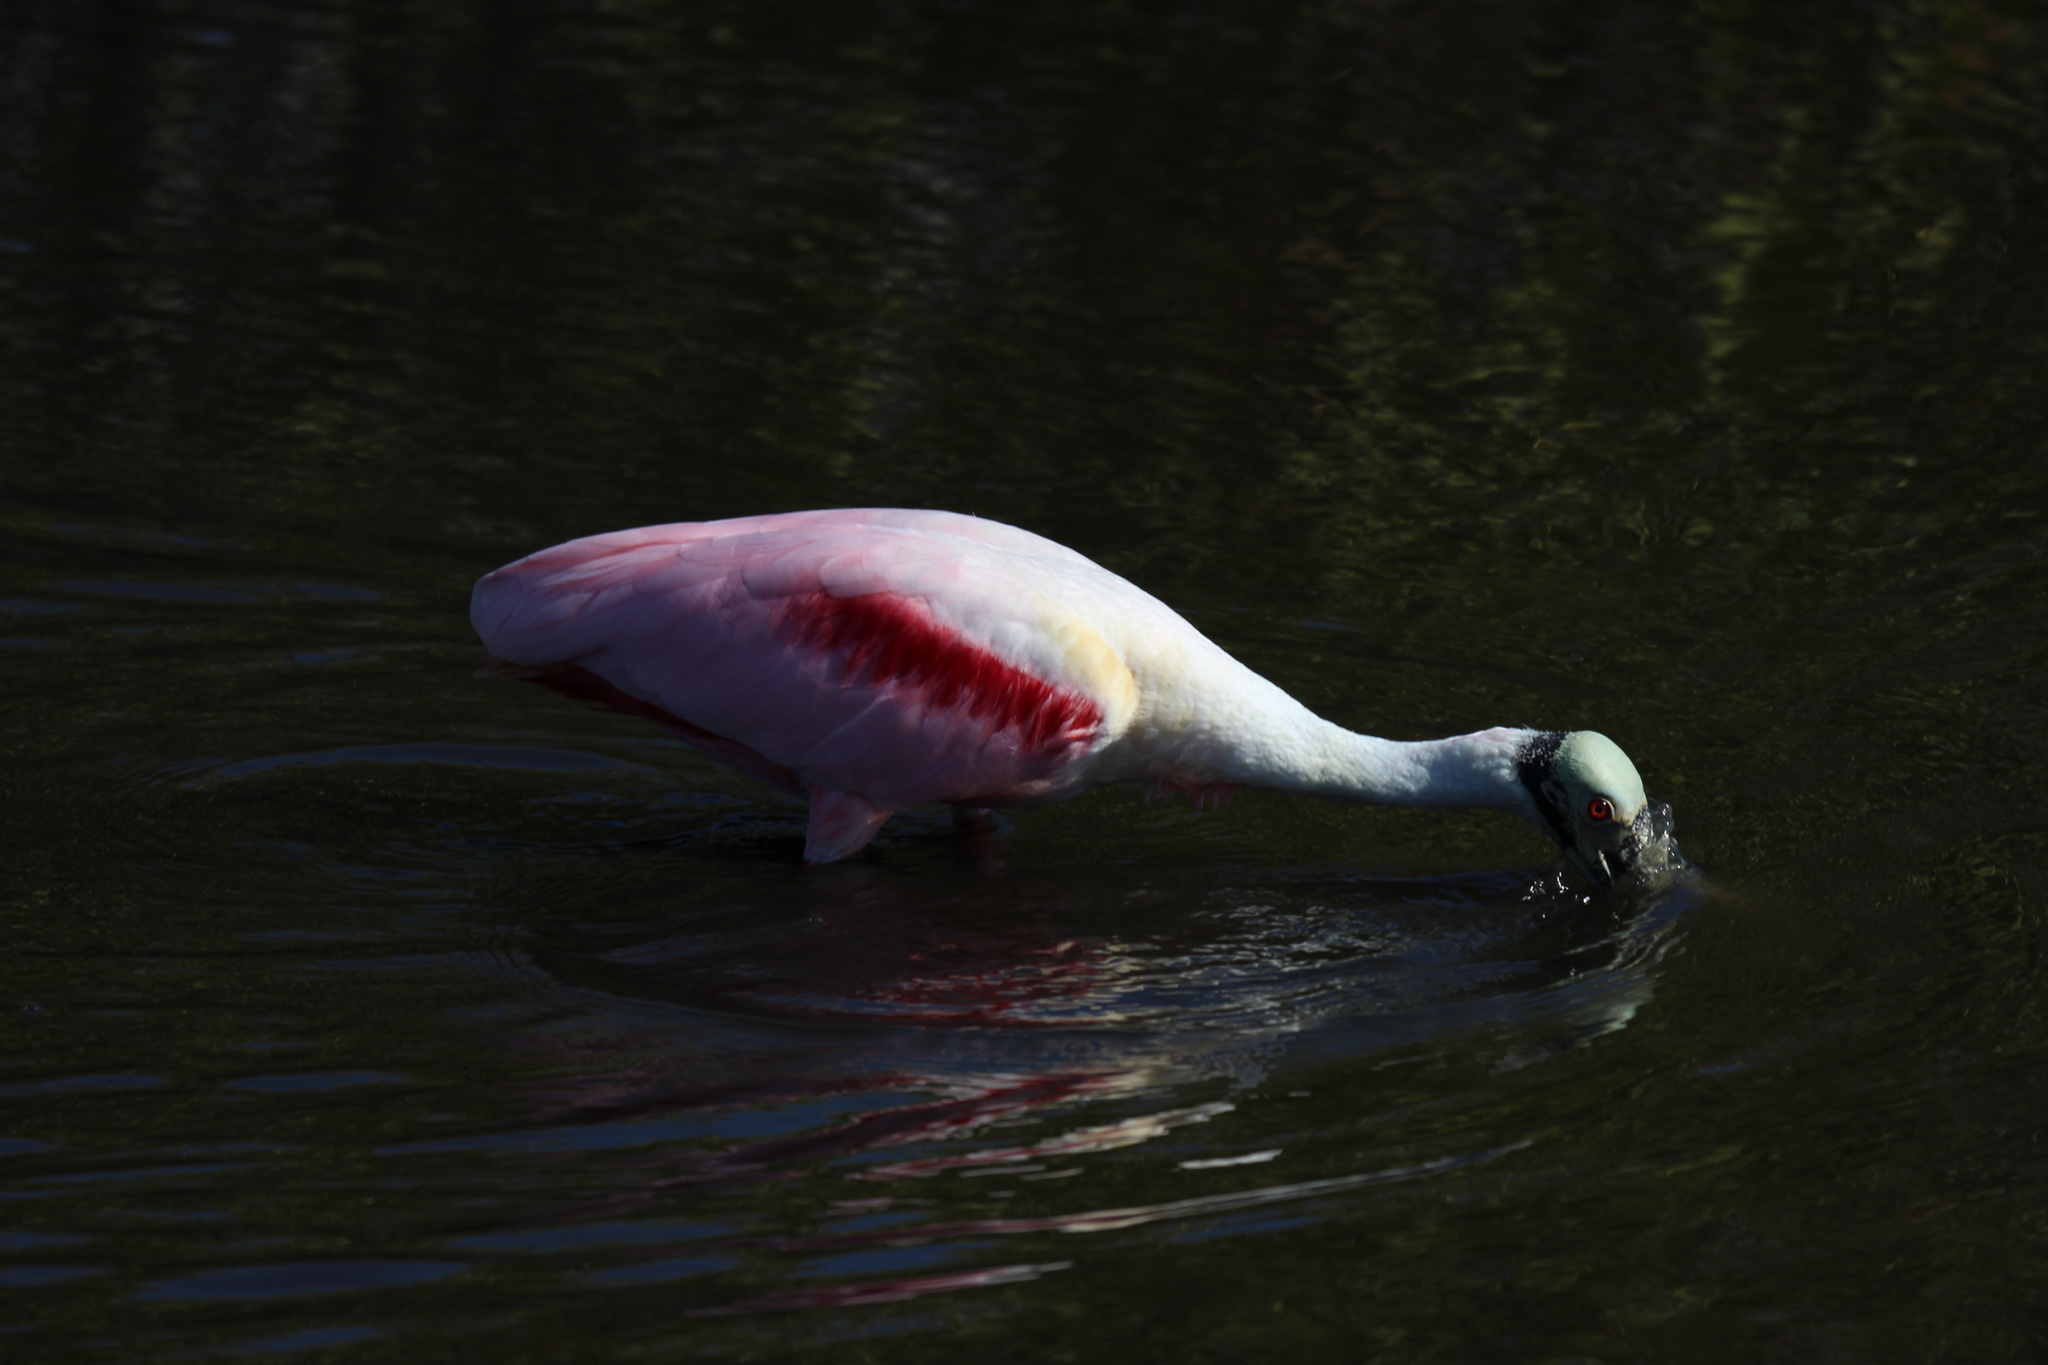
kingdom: Animalia
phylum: Chordata
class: Aves
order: Pelecaniformes
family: Threskiornithidae
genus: Platalea
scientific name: Platalea ajaja
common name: Roseate spoonbill
